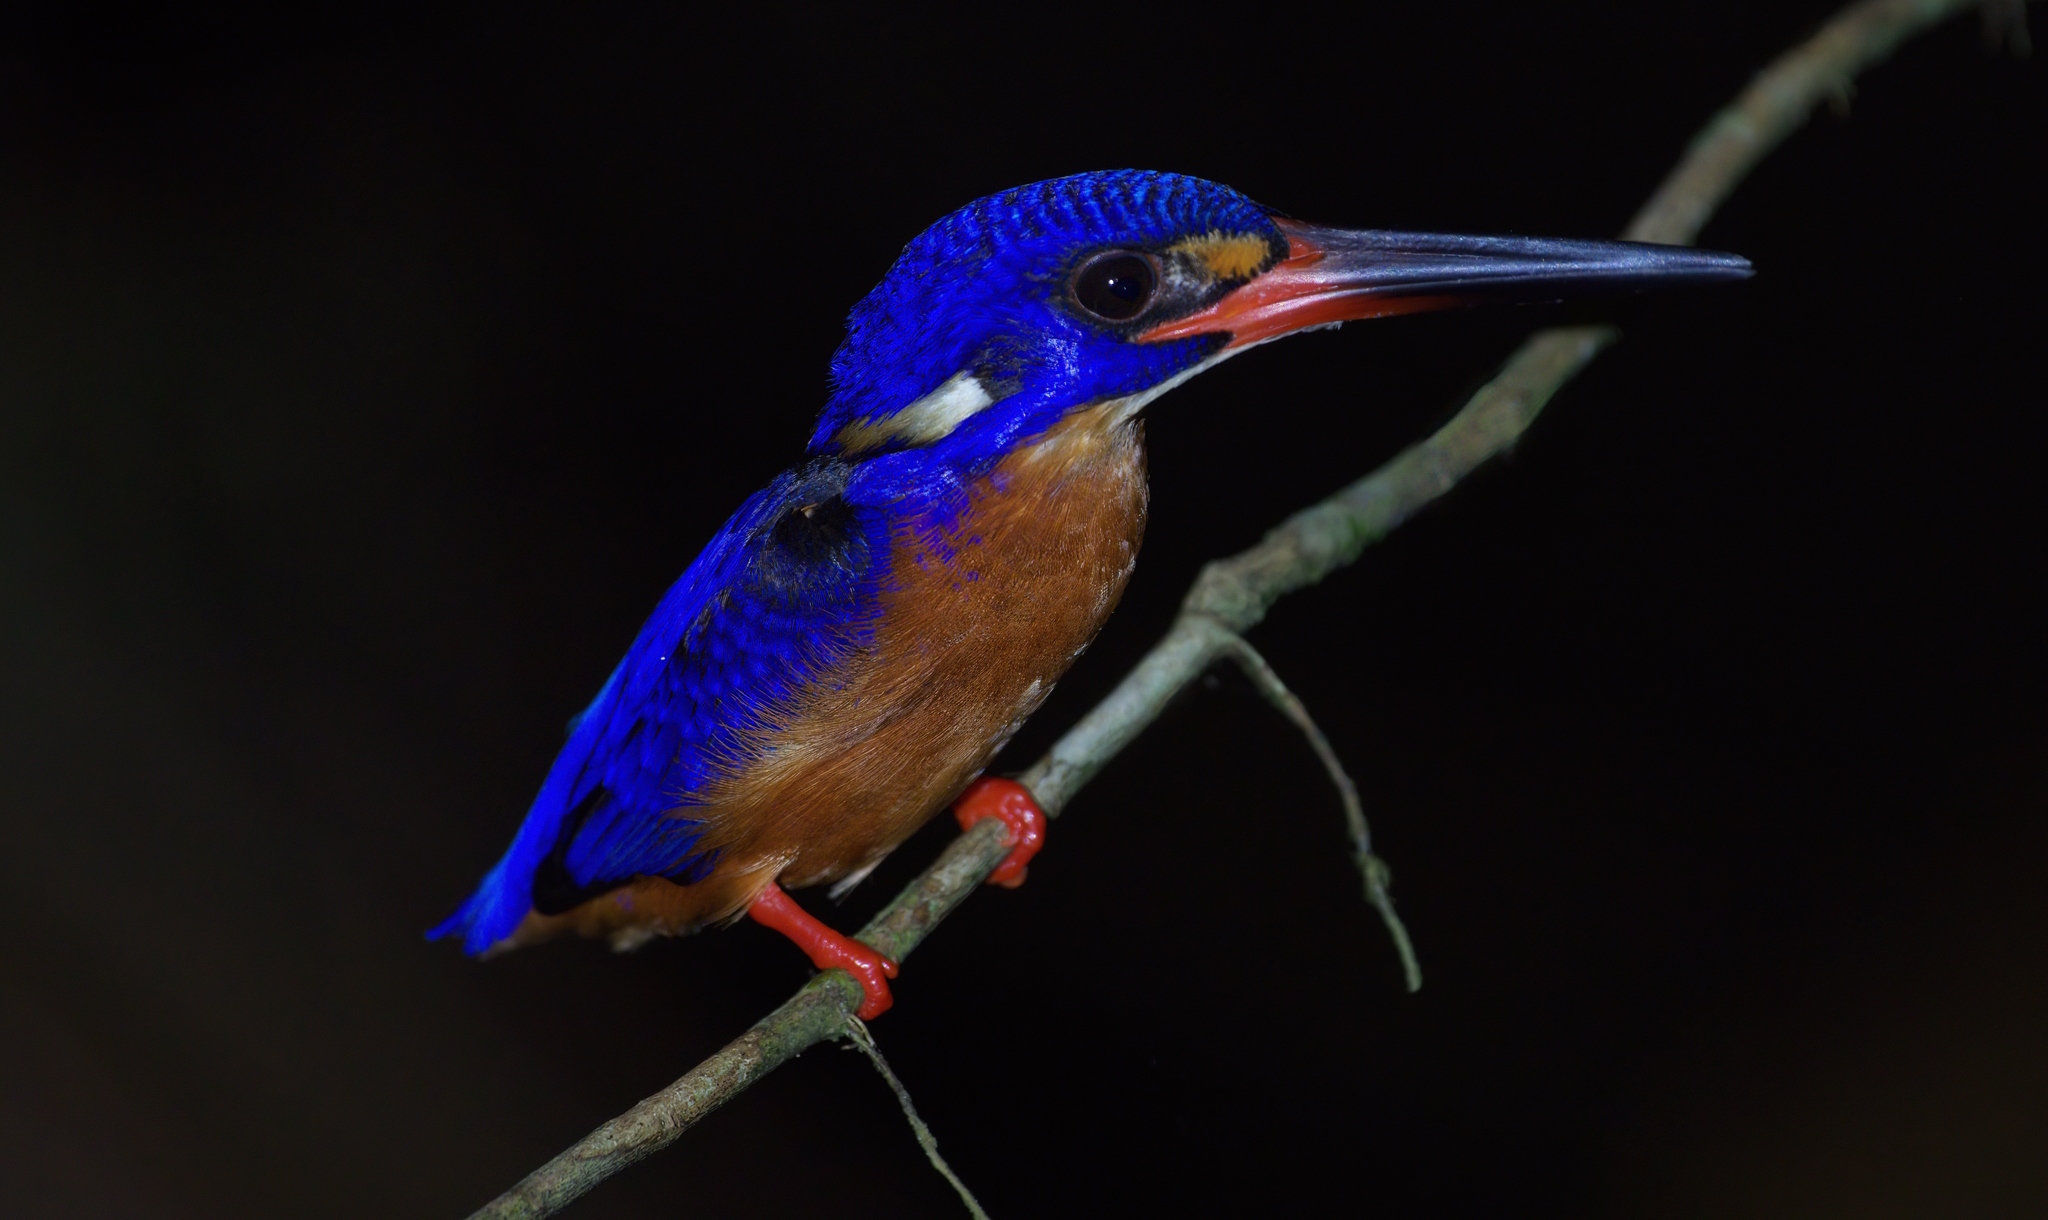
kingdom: Animalia
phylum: Chordata
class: Aves
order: Coraciiformes
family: Alcedinidae
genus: Alcedo
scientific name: Alcedo meninting
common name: Blue-eared kingfisher
